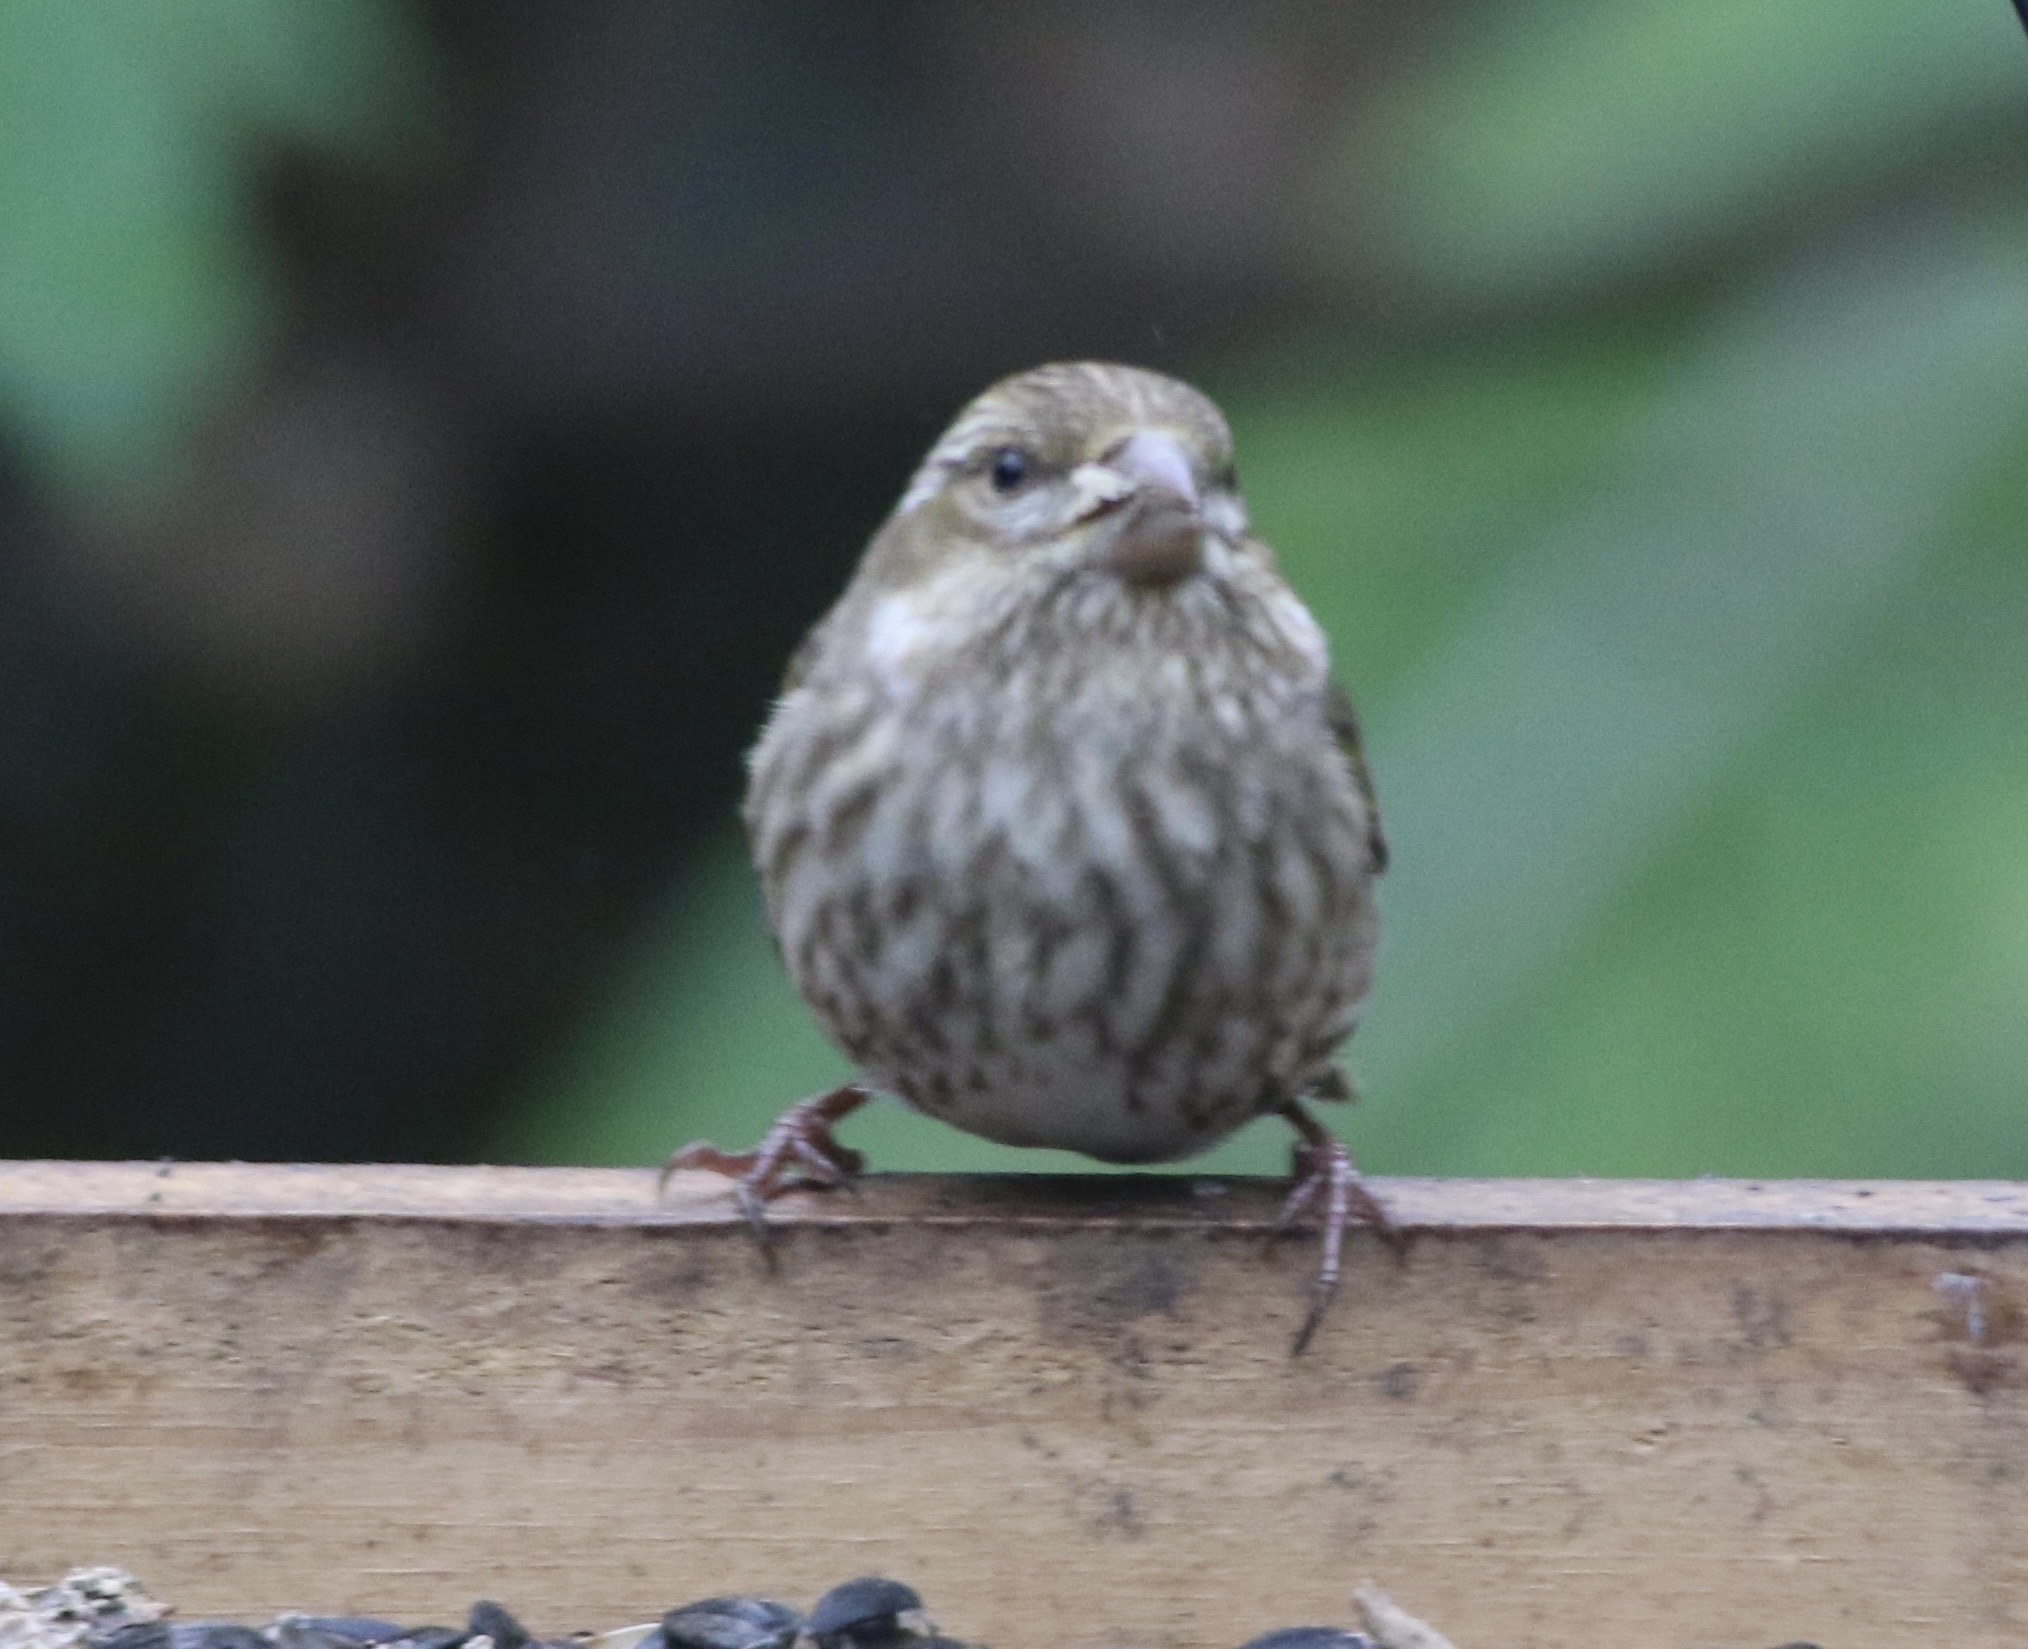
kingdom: Animalia
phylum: Chordata
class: Aves
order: Passeriformes
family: Fringillidae
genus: Haemorhous
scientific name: Haemorhous purpureus
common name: Purple finch
